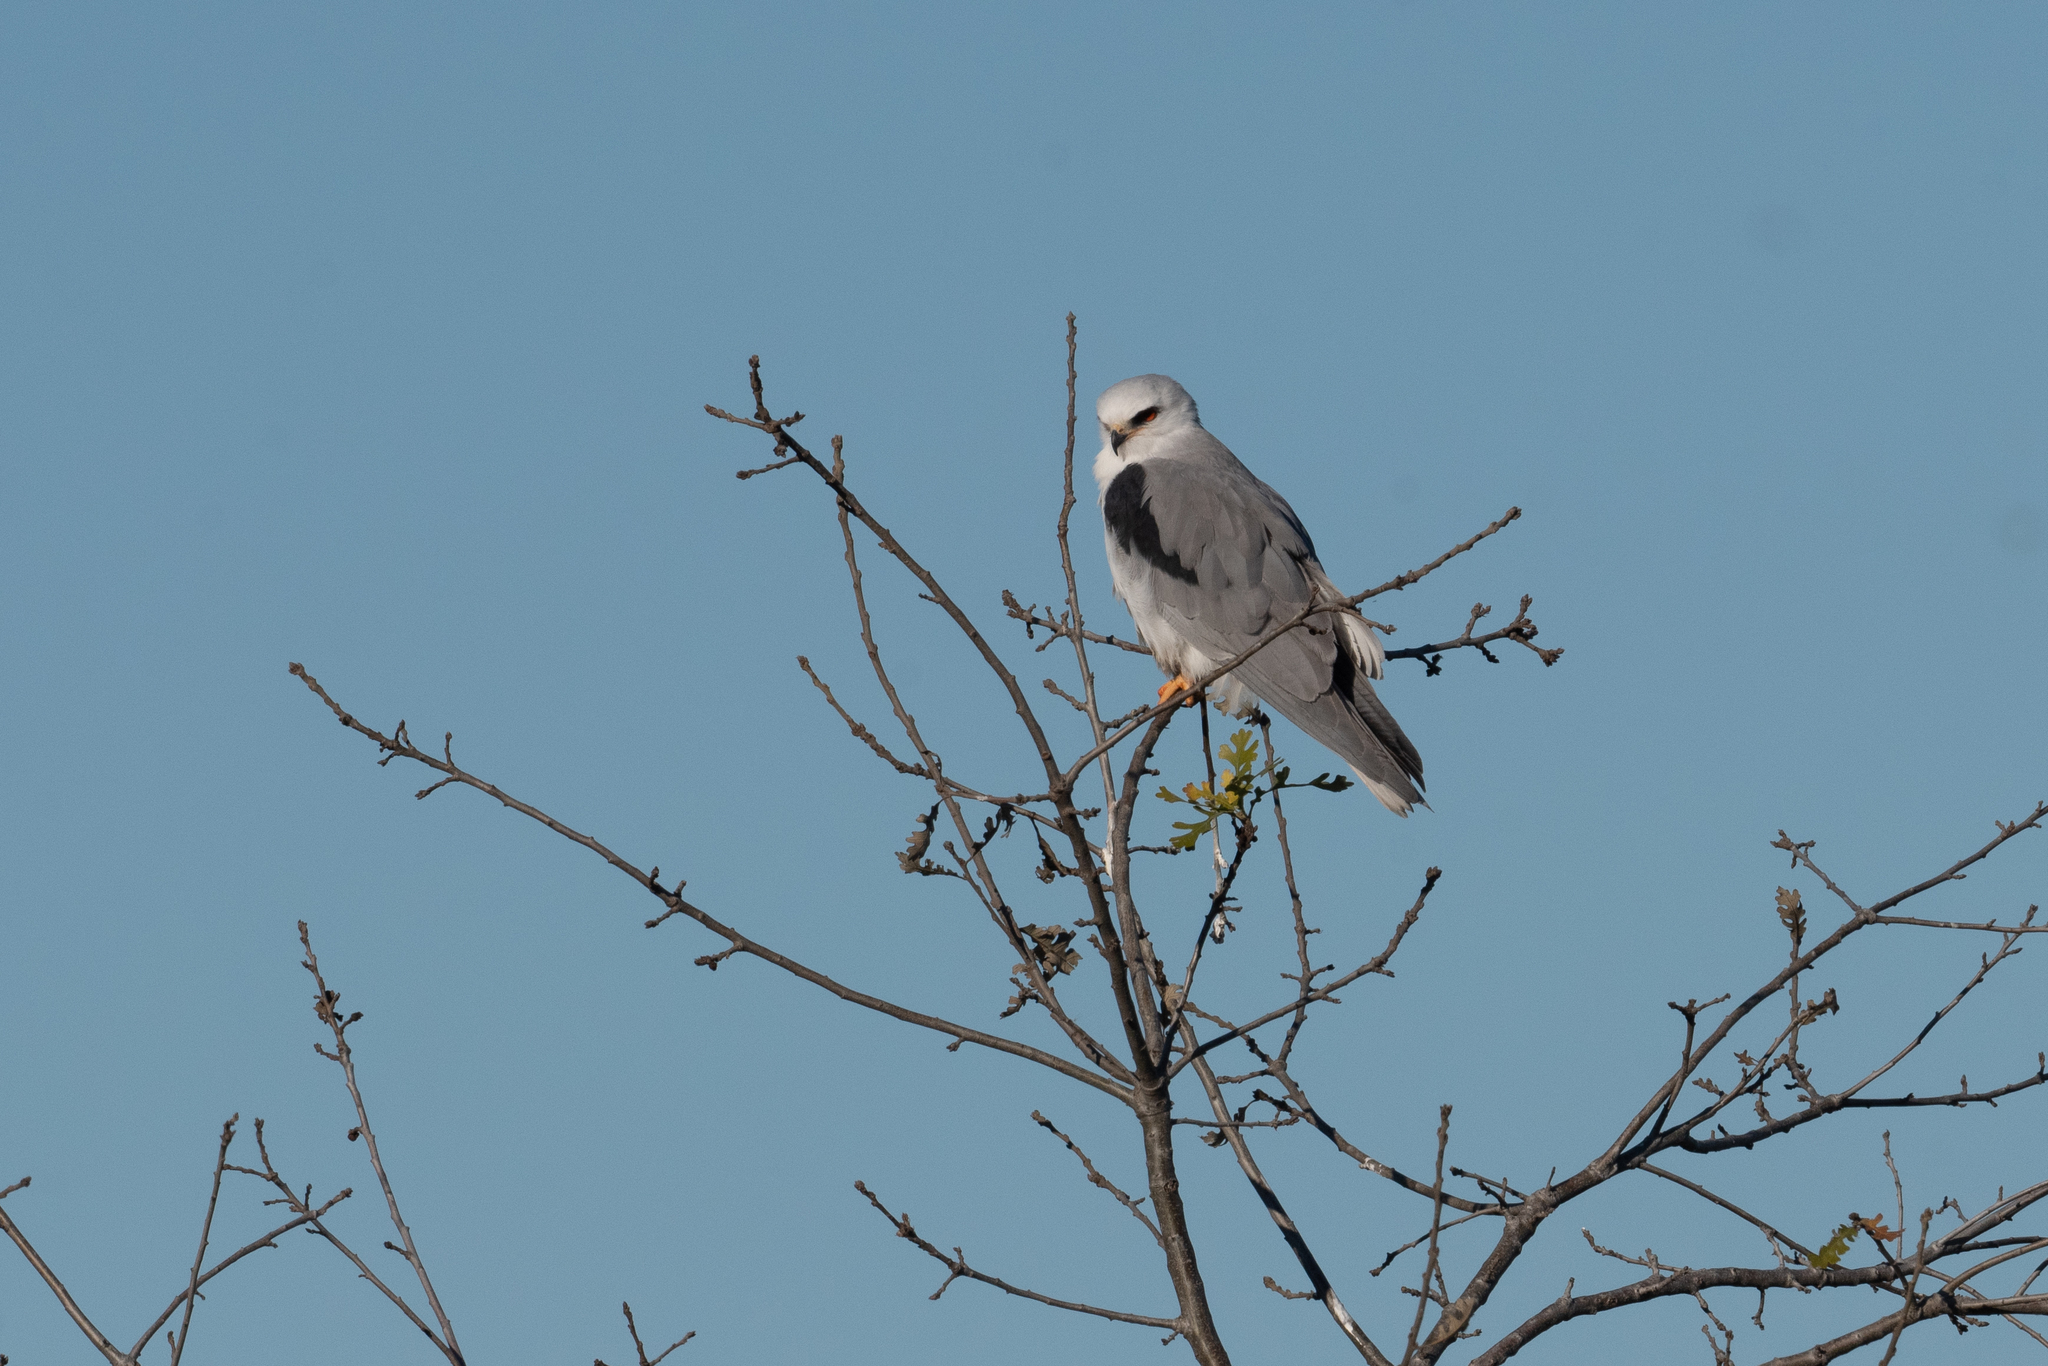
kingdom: Animalia
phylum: Chordata
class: Aves
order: Accipitriformes
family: Accipitridae
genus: Elanus
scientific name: Elanus leucurus
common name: White-tailed kite
